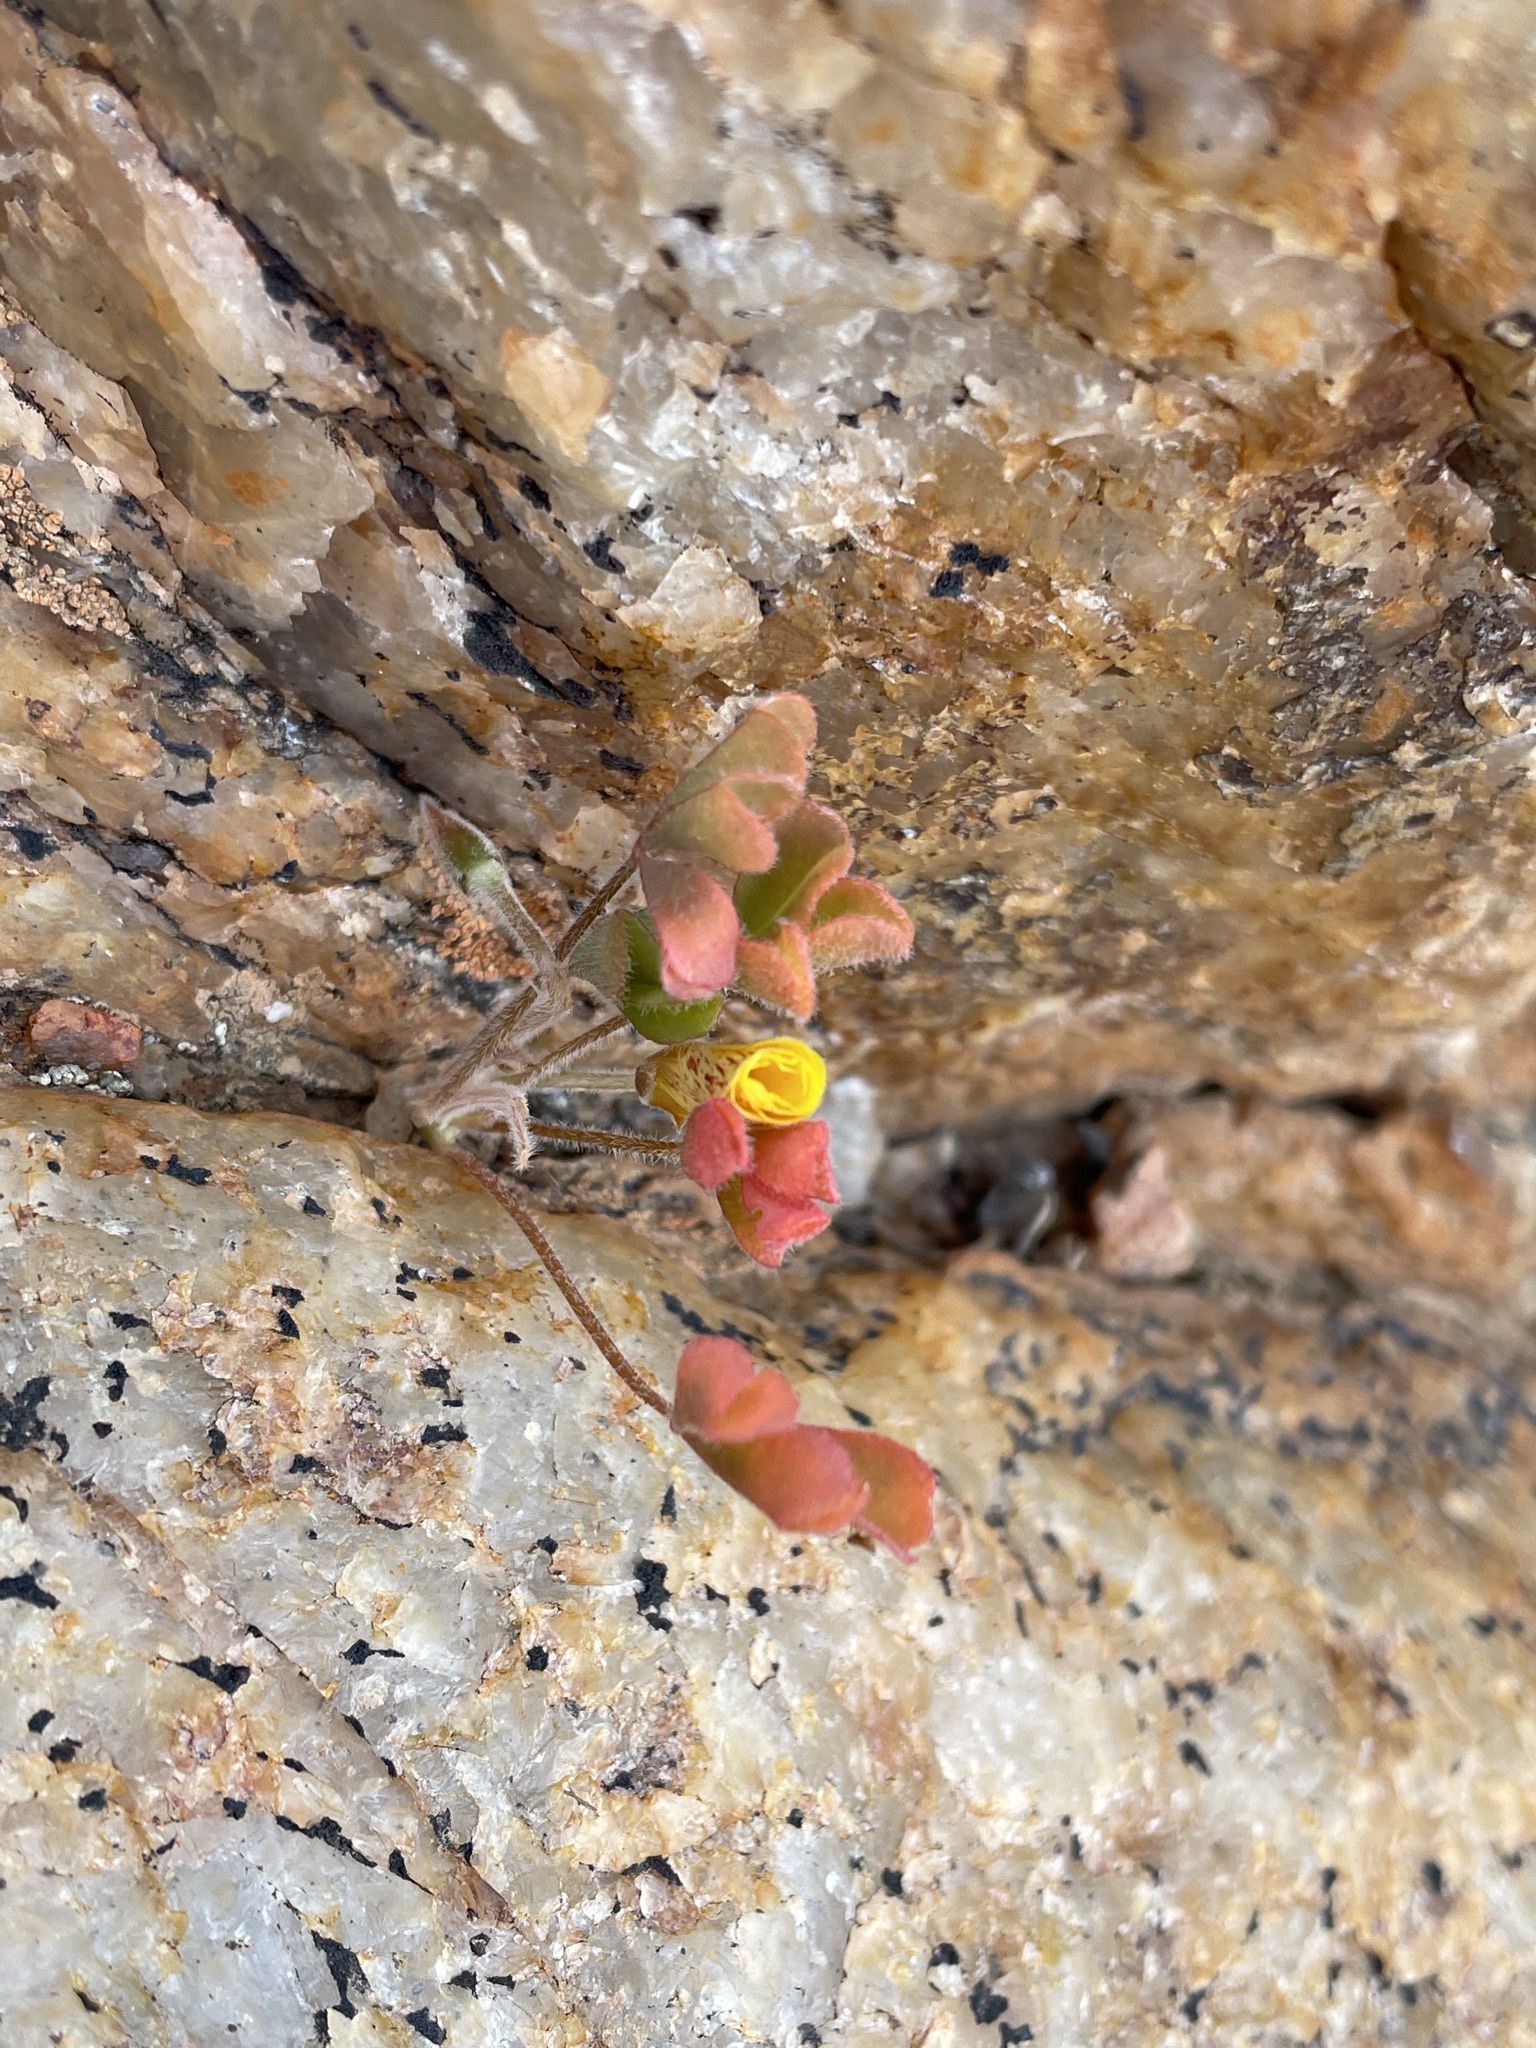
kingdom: Plantae
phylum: Tracheophyta
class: Magnoliopsida
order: Oxalidales
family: Oxalidaceae
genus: Oxalis
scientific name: Oxalis obtusa
